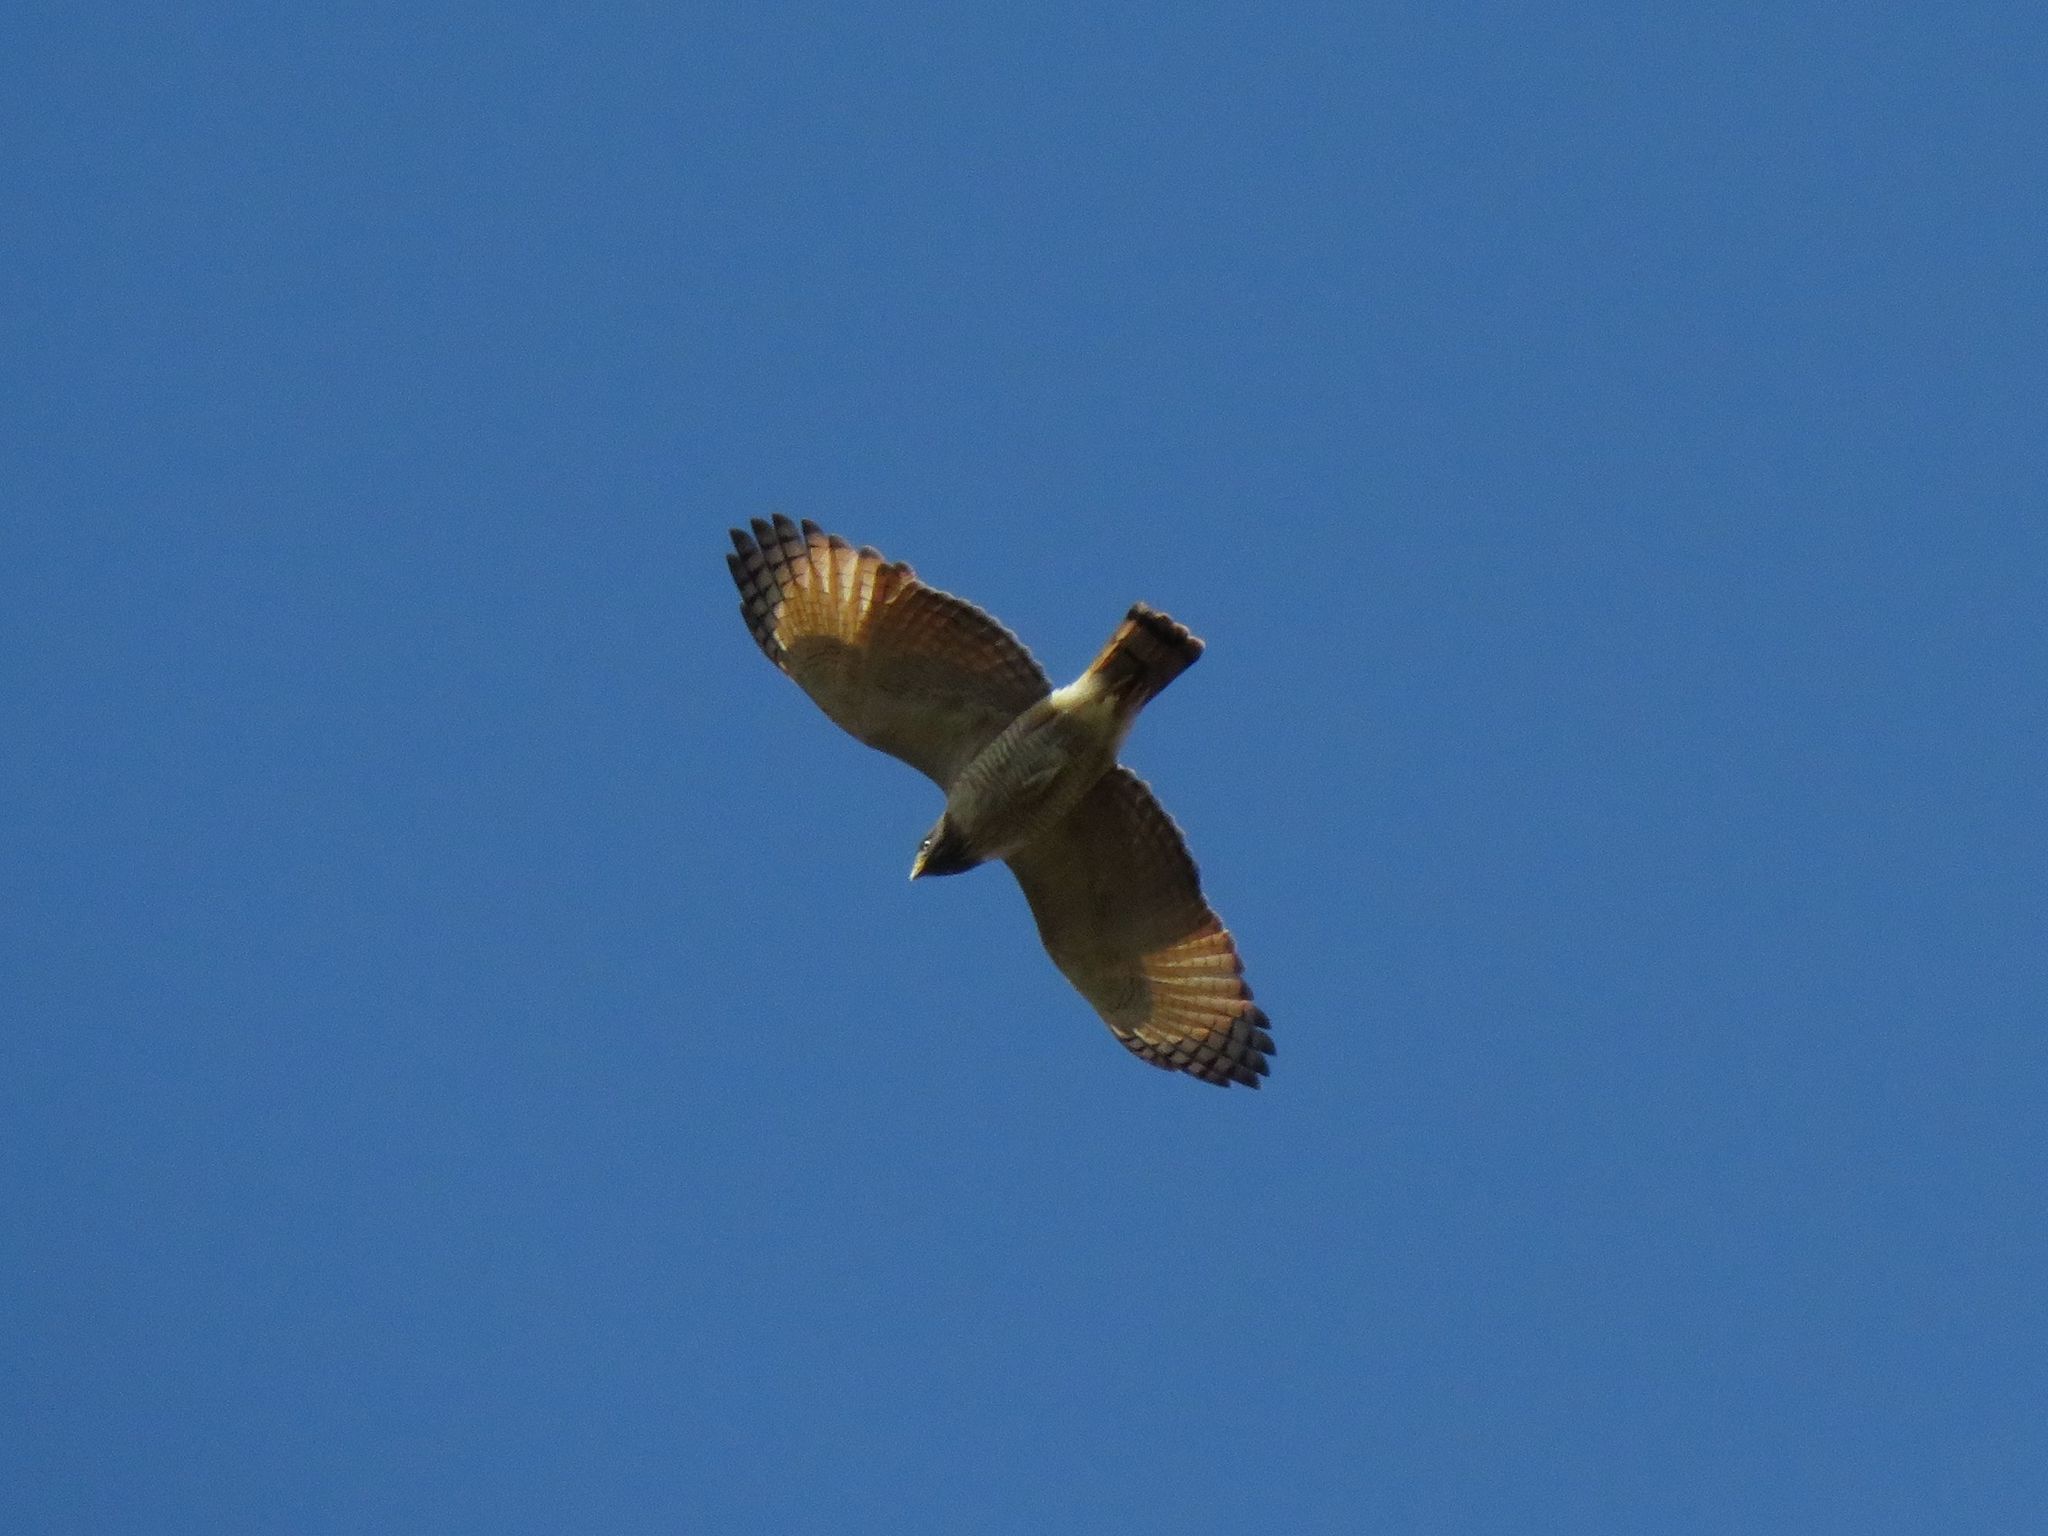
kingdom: Animalia
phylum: Chordata
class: Aves
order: Accipitriformes
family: Accipitridae
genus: Rupornis
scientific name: Rupornis magnirostris
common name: Roadside hawk
